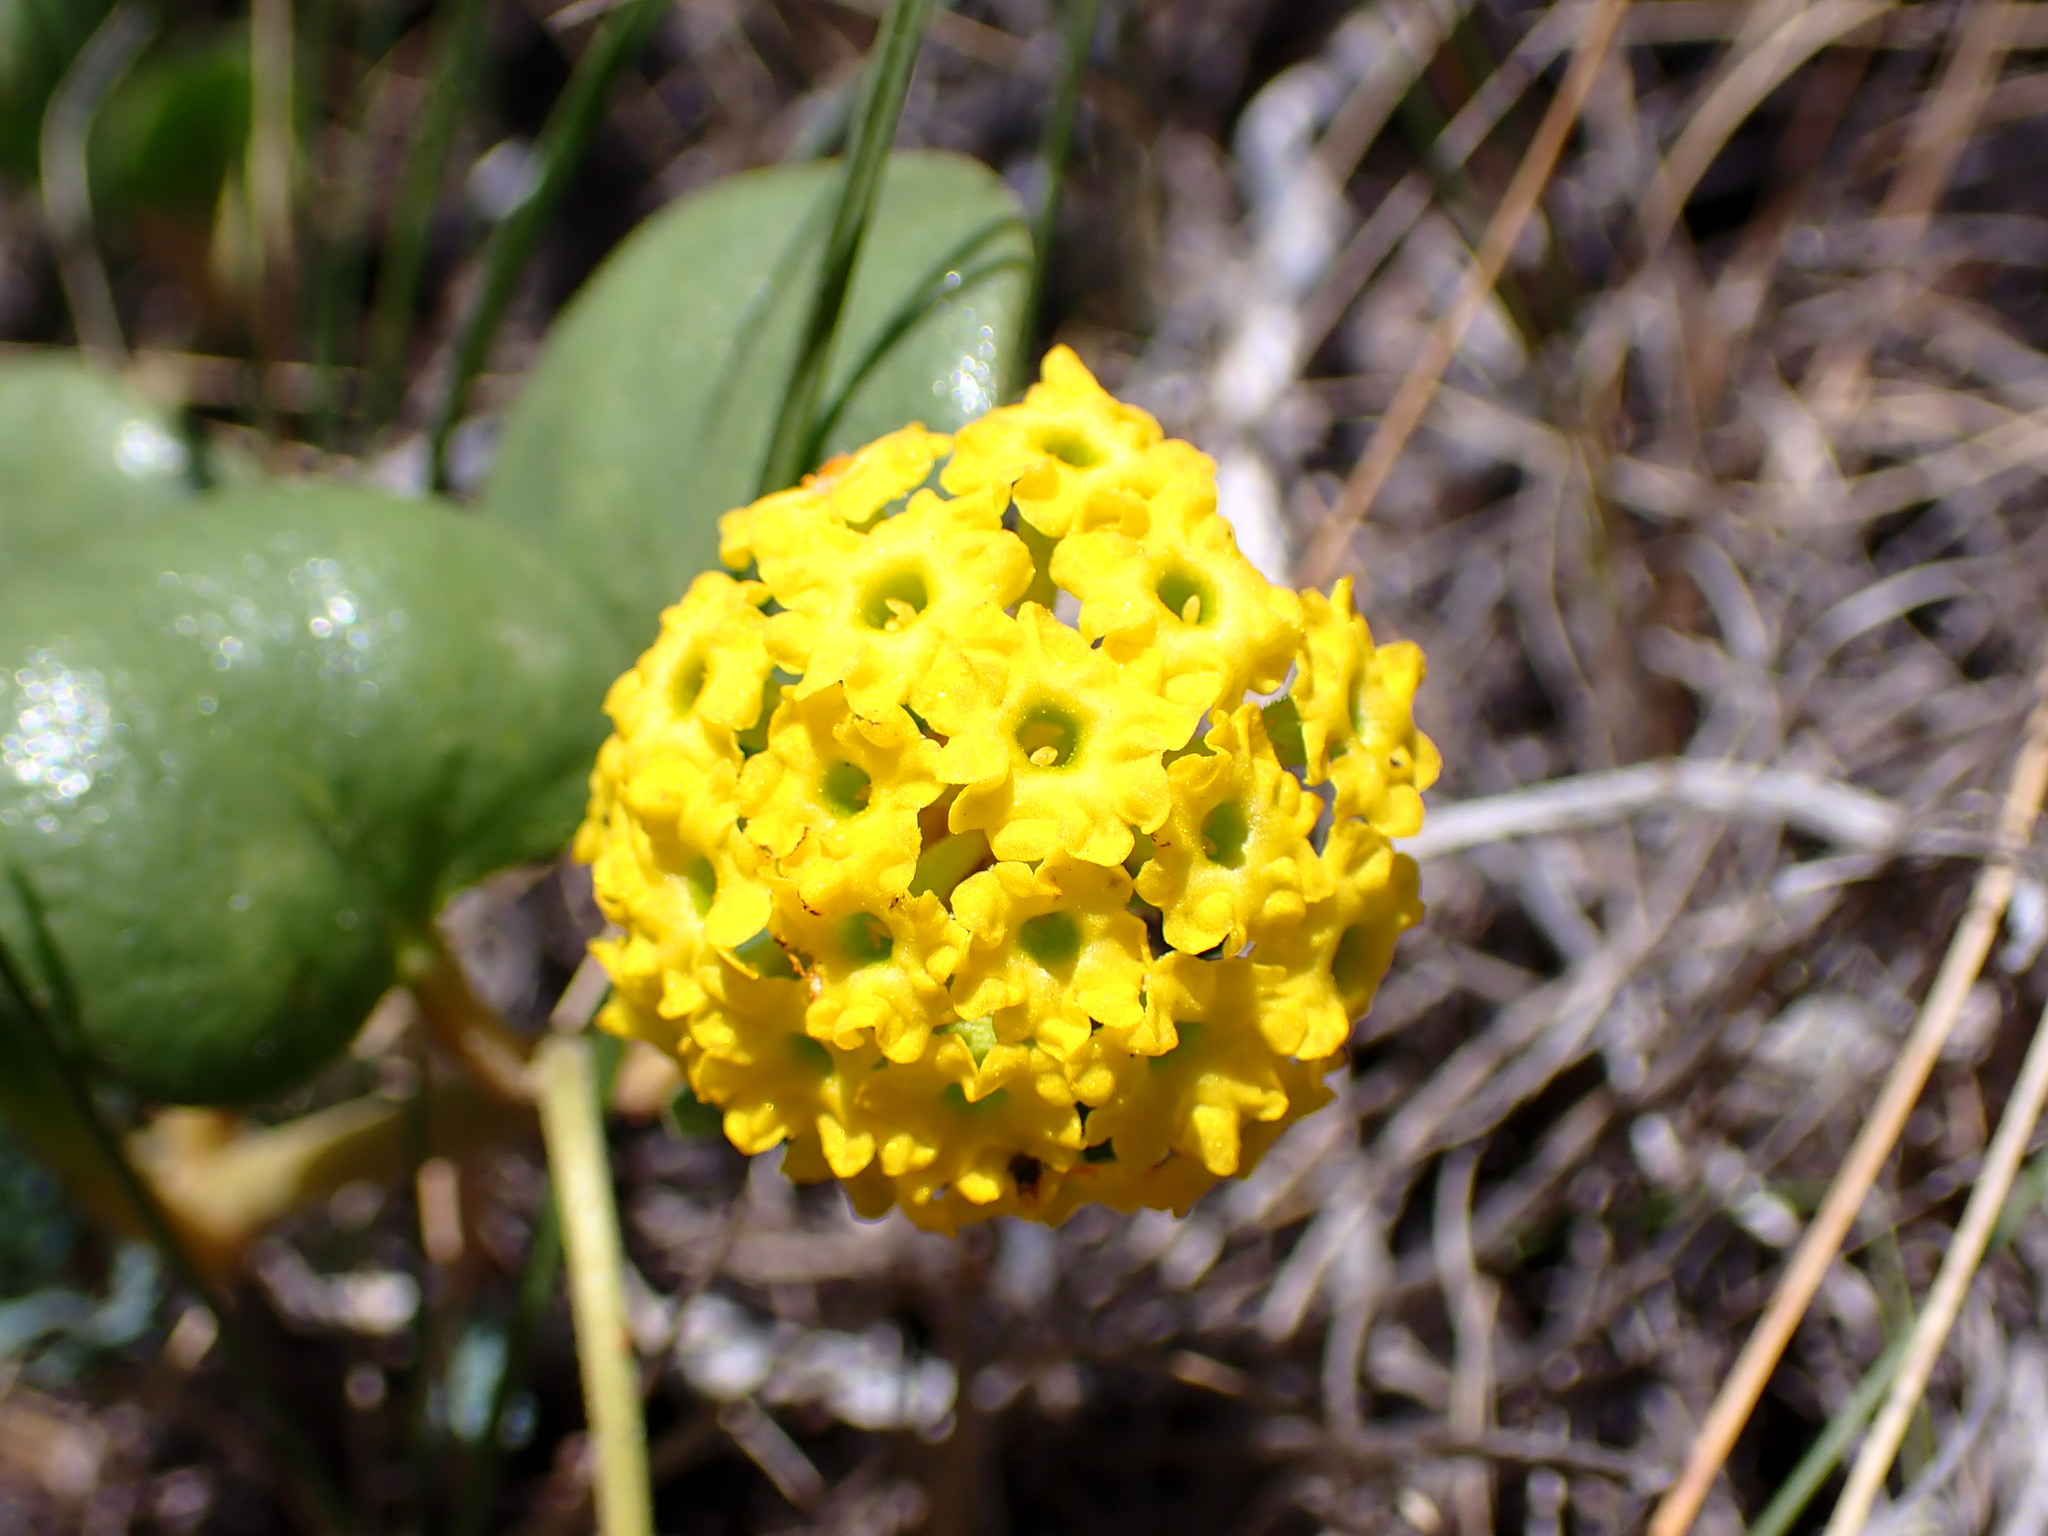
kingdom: Plantae
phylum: Tracheophyta
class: Magnoliopsida
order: Caryophyllales
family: Nyctaginaceae
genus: Abronia
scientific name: Abronia latifolia
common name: Yellow sand-verbena
